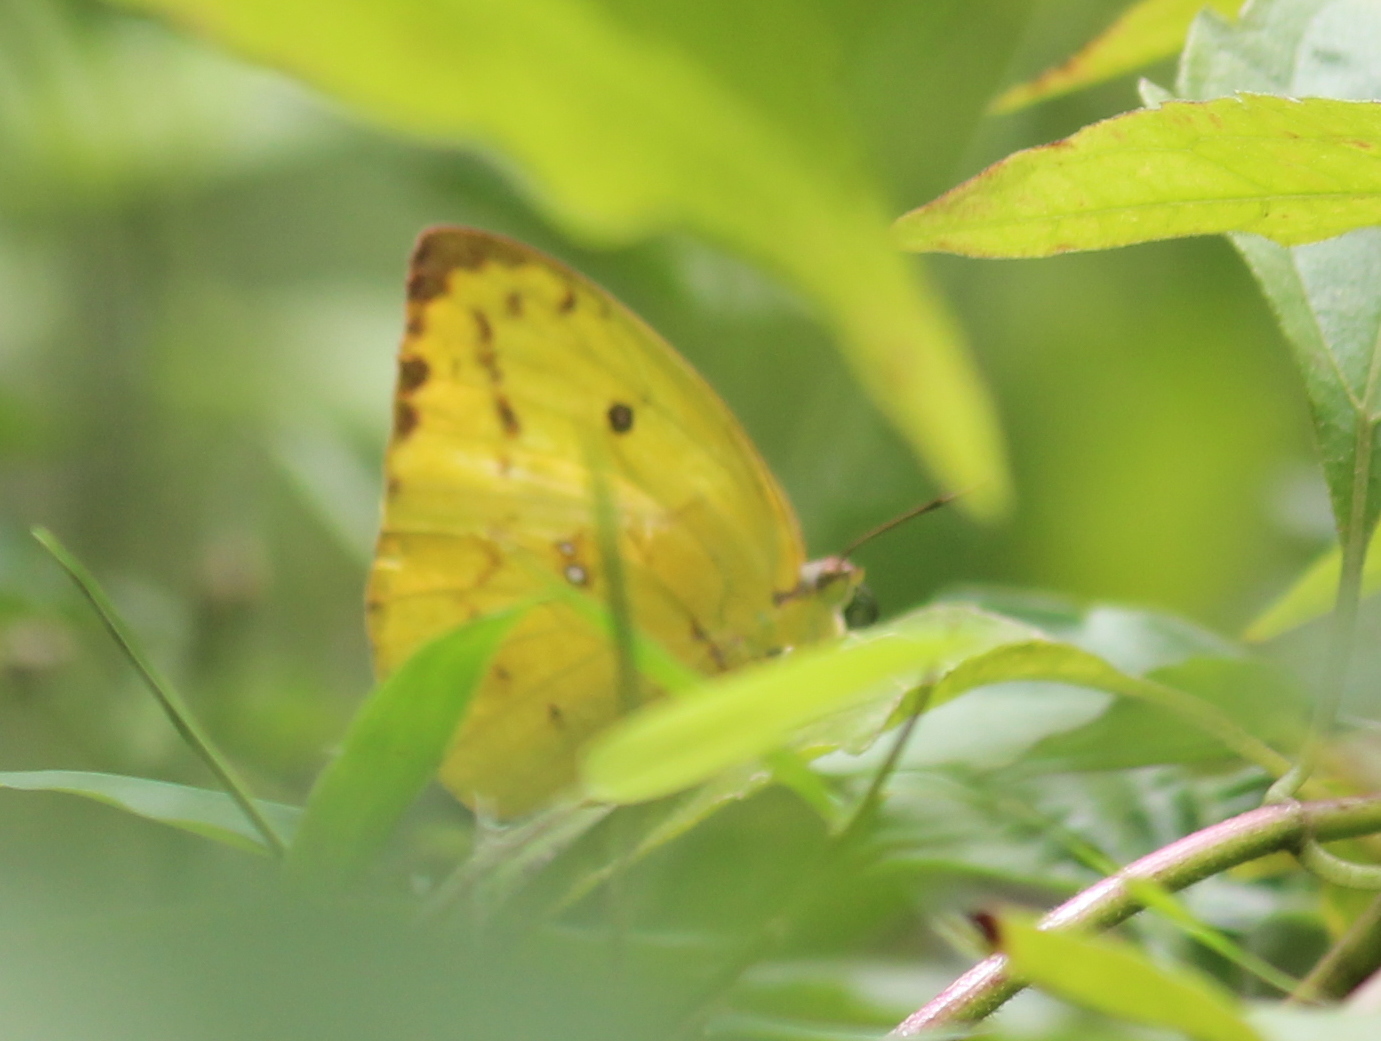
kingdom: Animalia
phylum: Arthropoda
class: Insecta
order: Lepidoptera
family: Pieridae
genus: Catopsilia
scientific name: Catopsilia pomona
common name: Common emigrant
